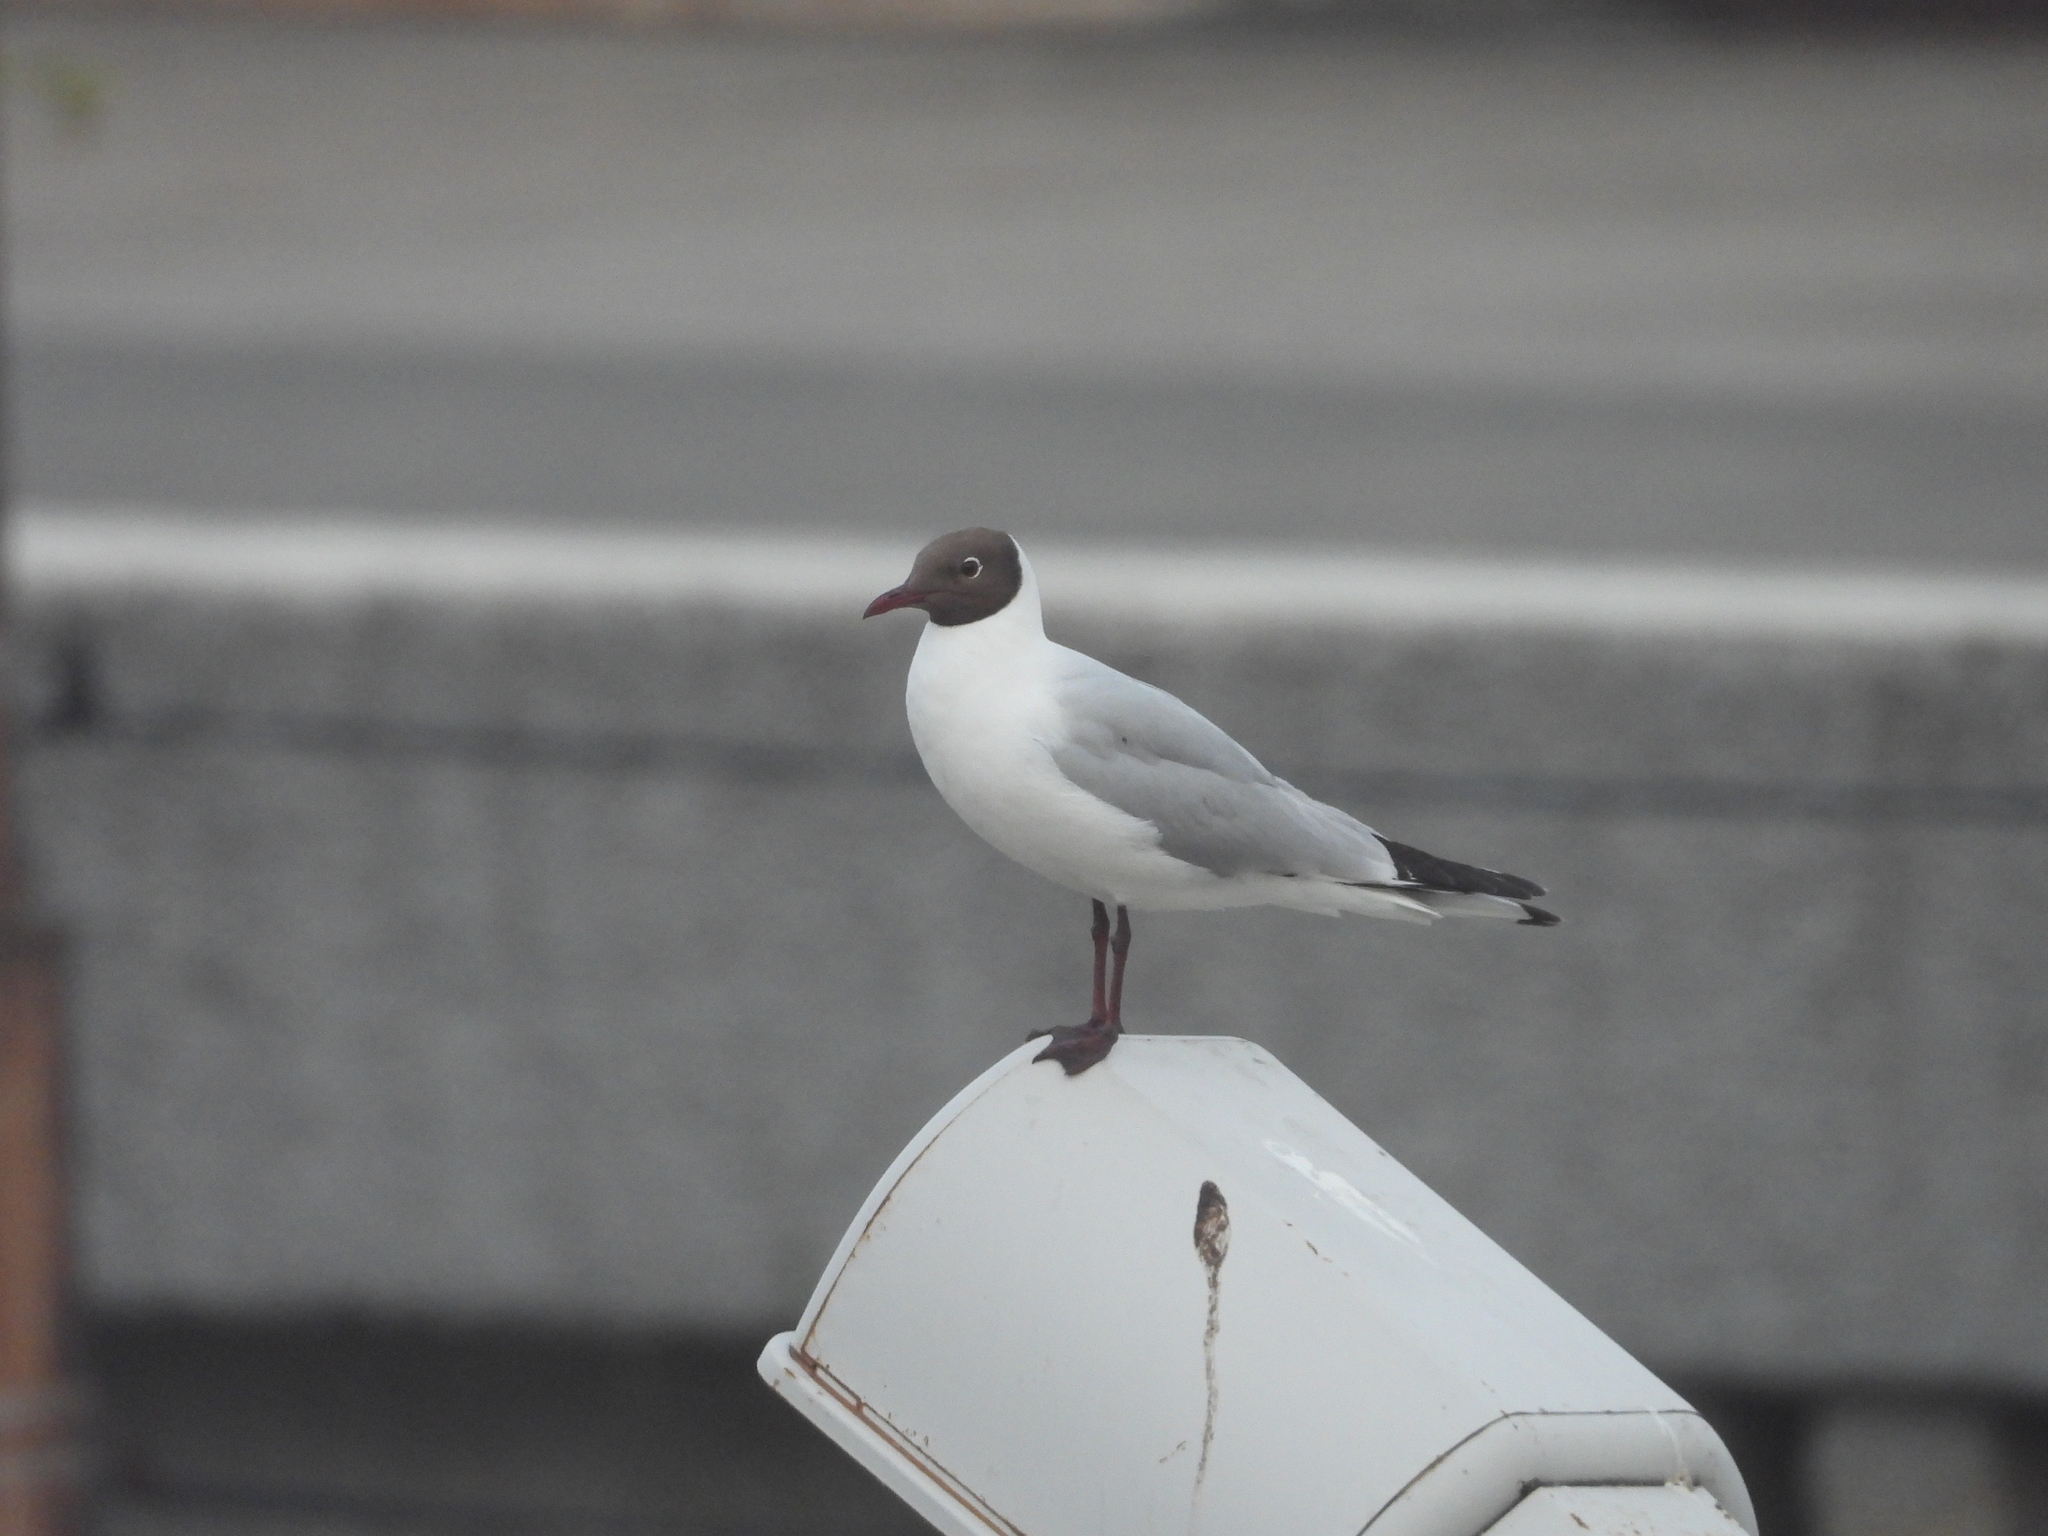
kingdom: Animalia
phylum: Chordata
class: Aves
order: Charadriiformes
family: Laridae
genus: Chroicocephalus
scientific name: Chroicocephalus ridibundus
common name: Black-headed gull
